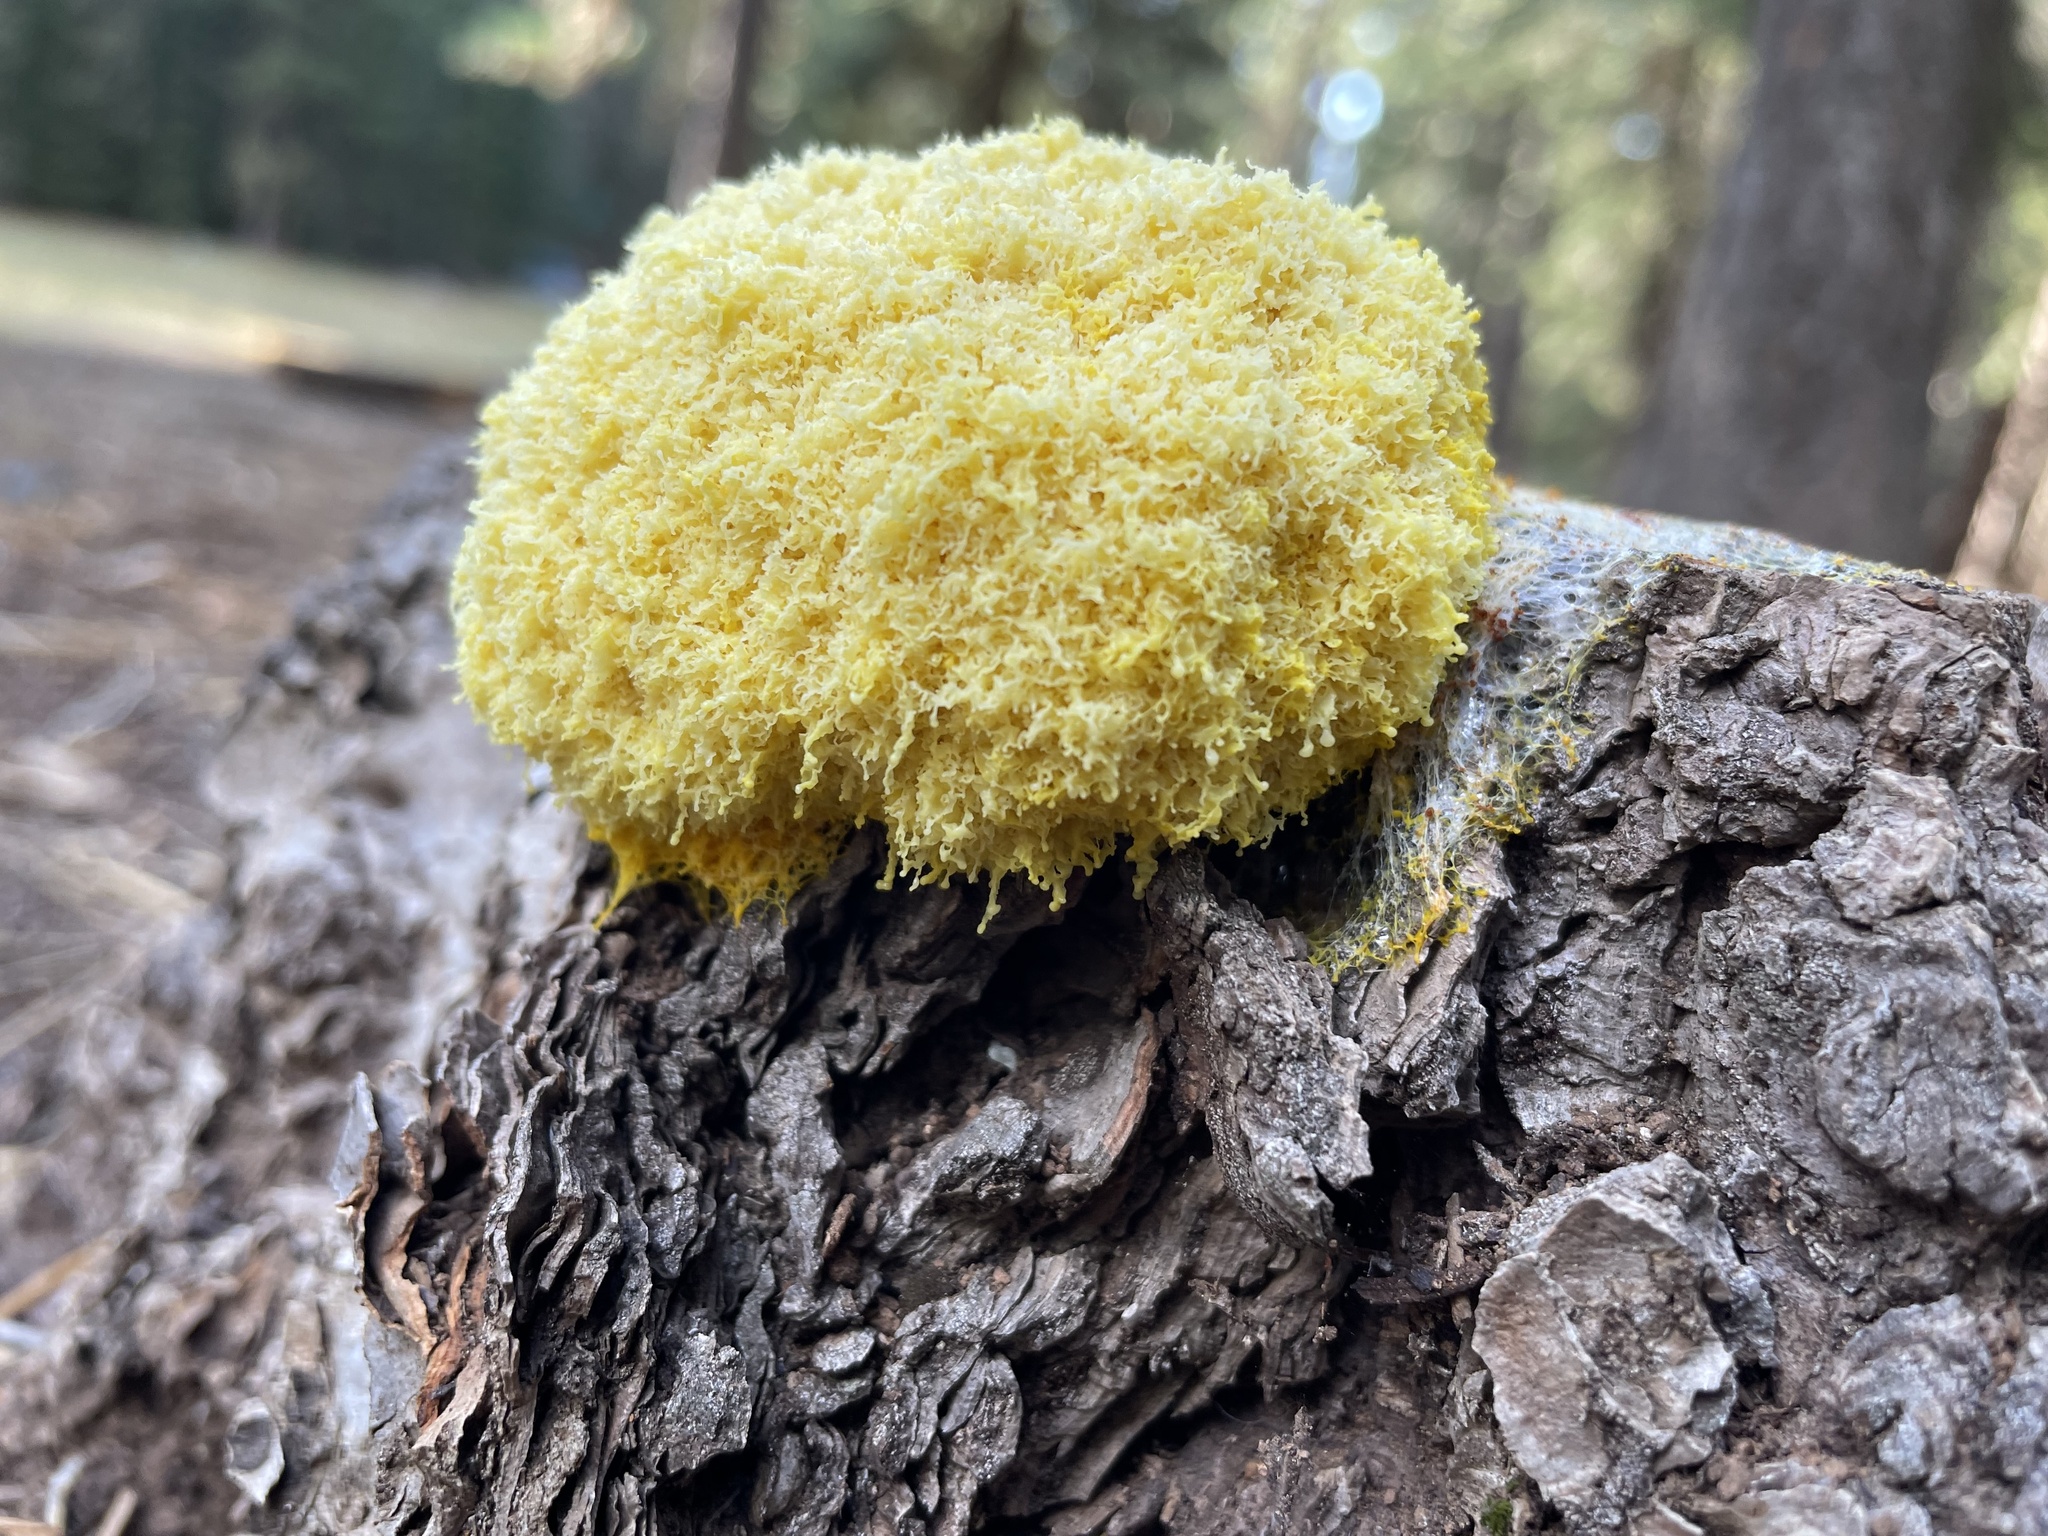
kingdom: Protozoa
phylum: Mycetozoa
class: Myxomycetes
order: Physarales
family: Physaraceae
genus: Fuligo
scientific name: Fuligo septica
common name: Dog vomit slime mold
